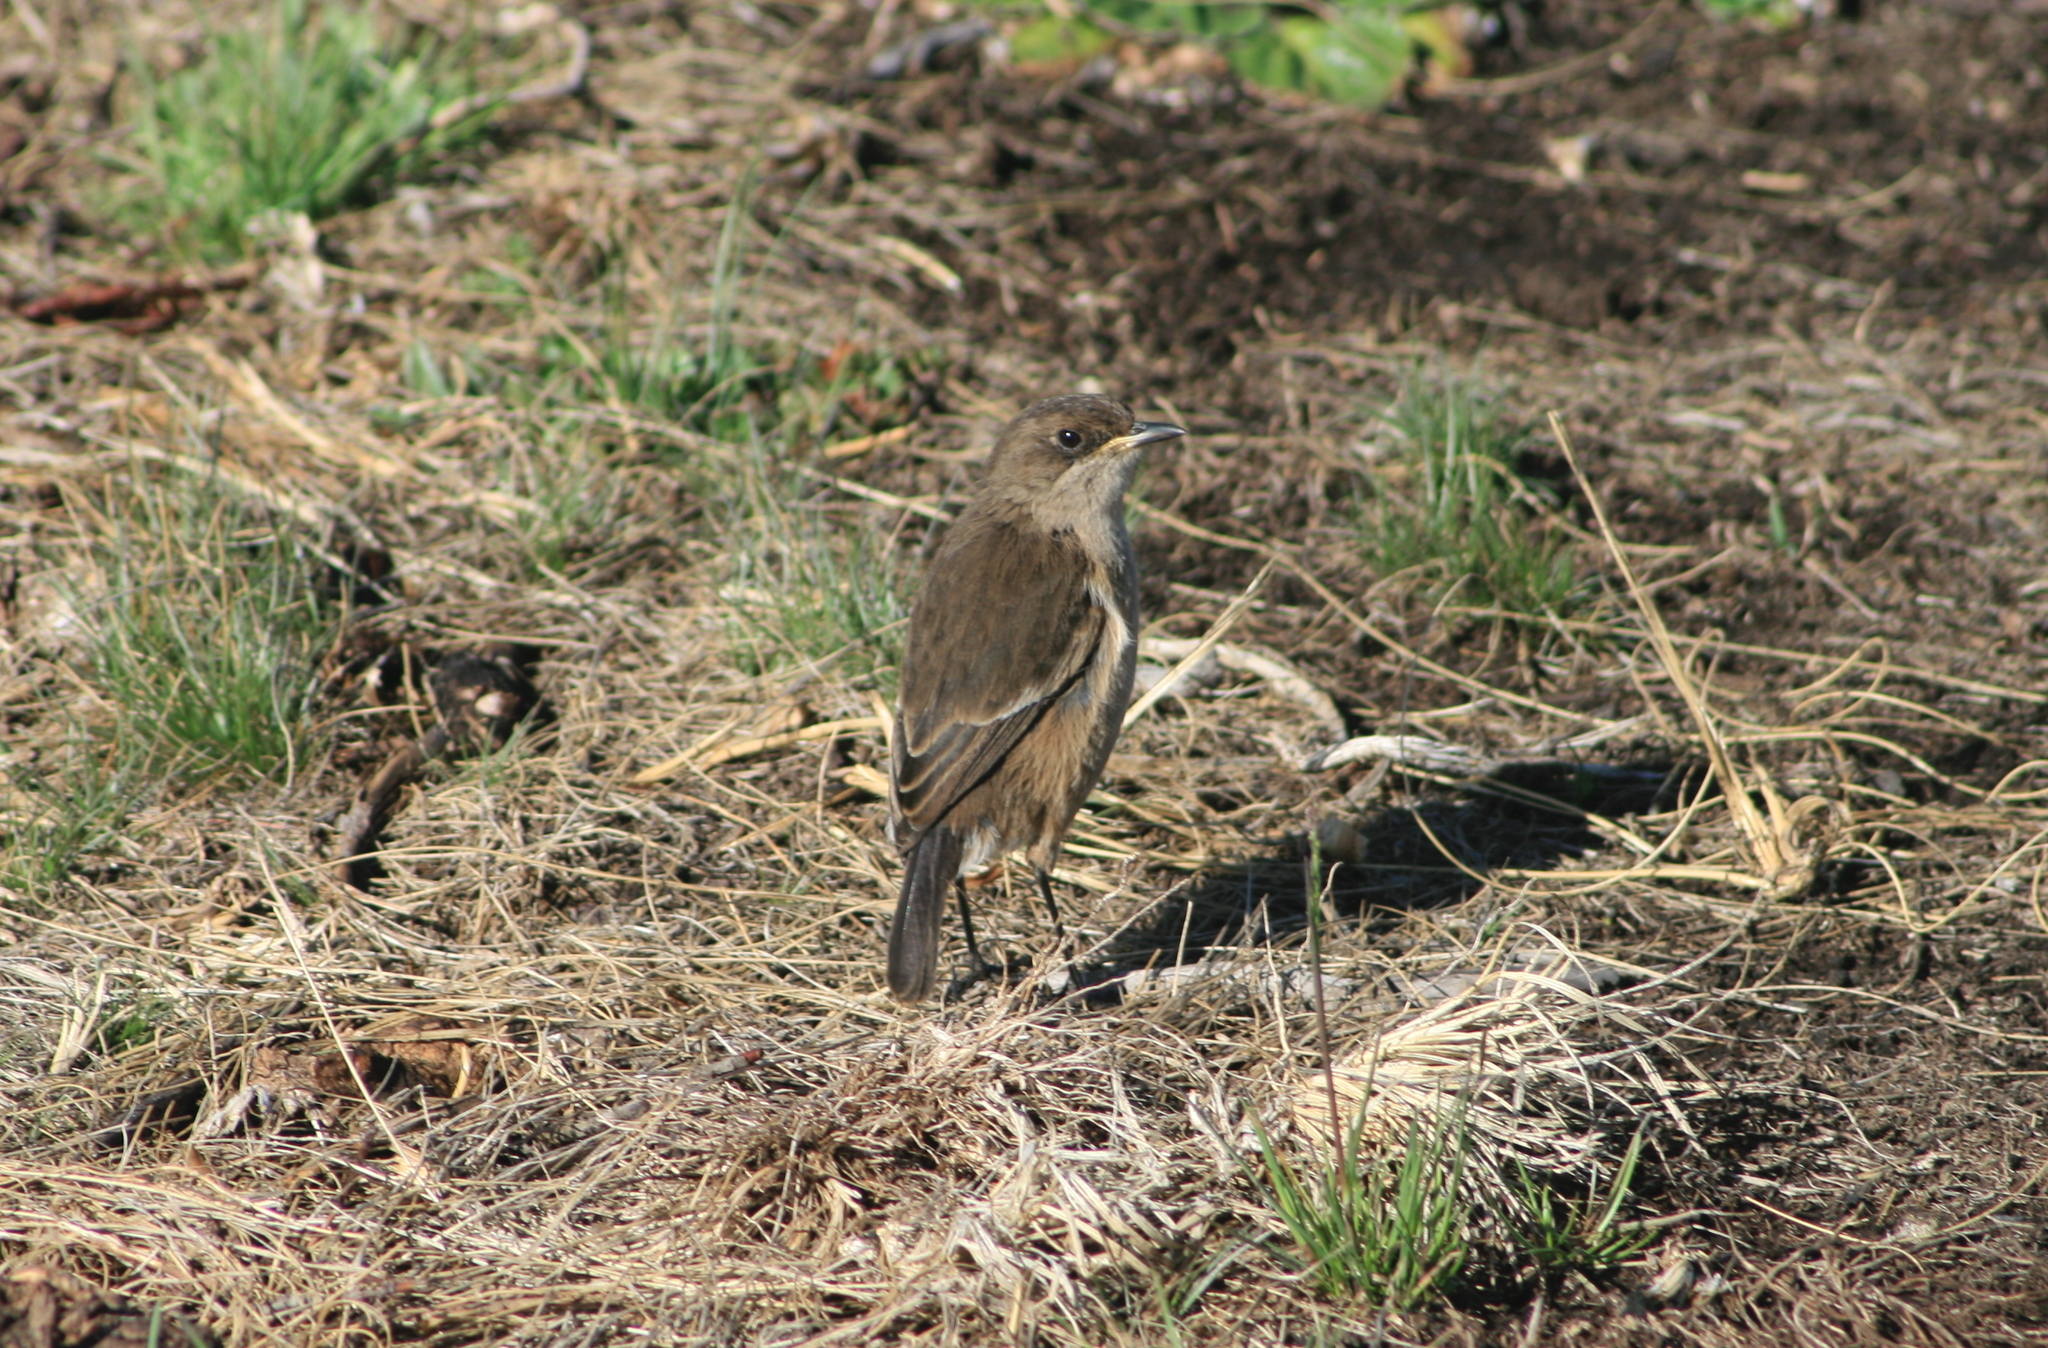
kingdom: Animalia
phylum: Chordata
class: Aves
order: Passeriformes
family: Muscicapidae
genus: Pinarochroa
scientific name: Pinarochroa sordida
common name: Moorland chat
